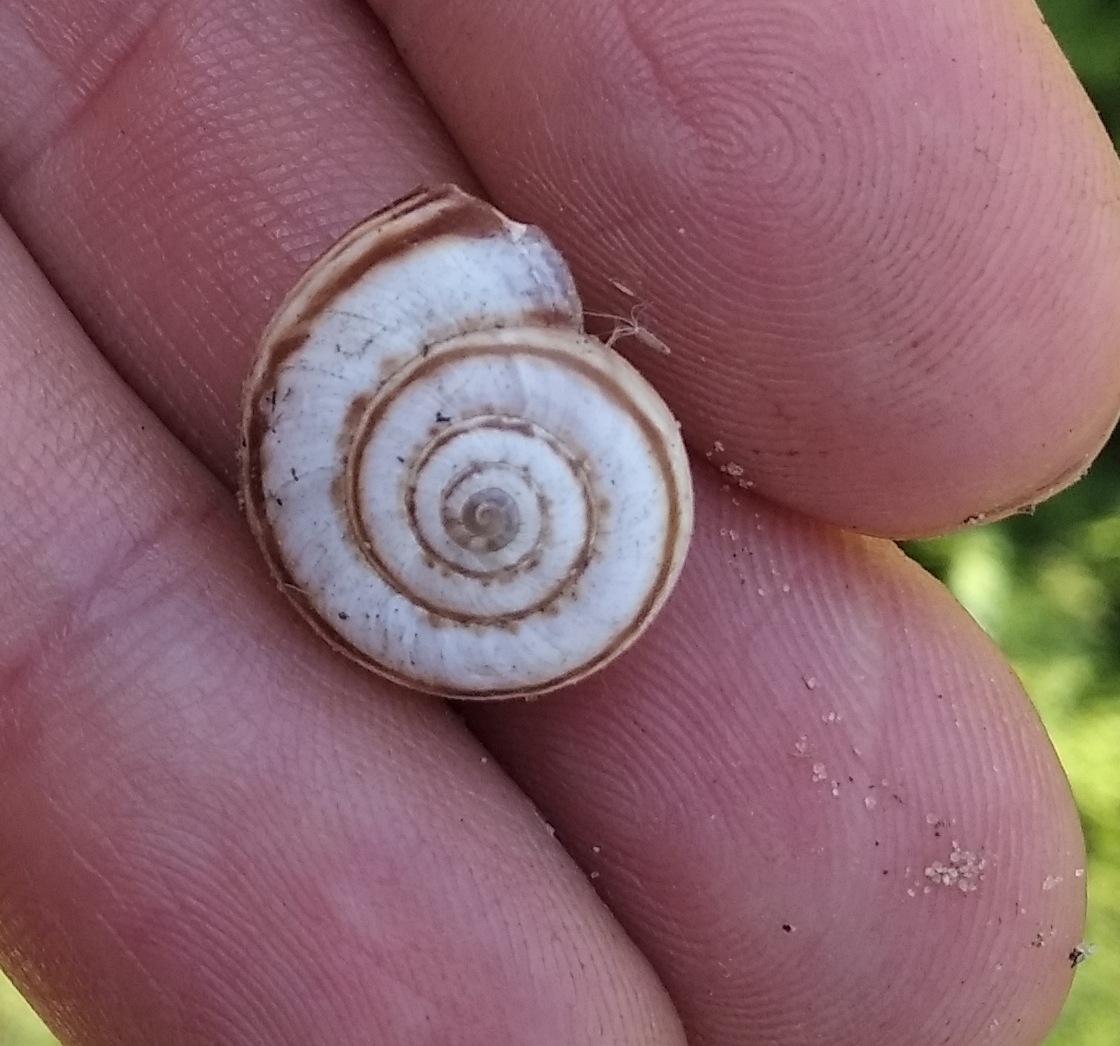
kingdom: Animalia
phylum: Mollusca
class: Gastropoda
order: Stylommatophora
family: Geomitridae
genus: Xeropicta
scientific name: Xeropicta derbentina
